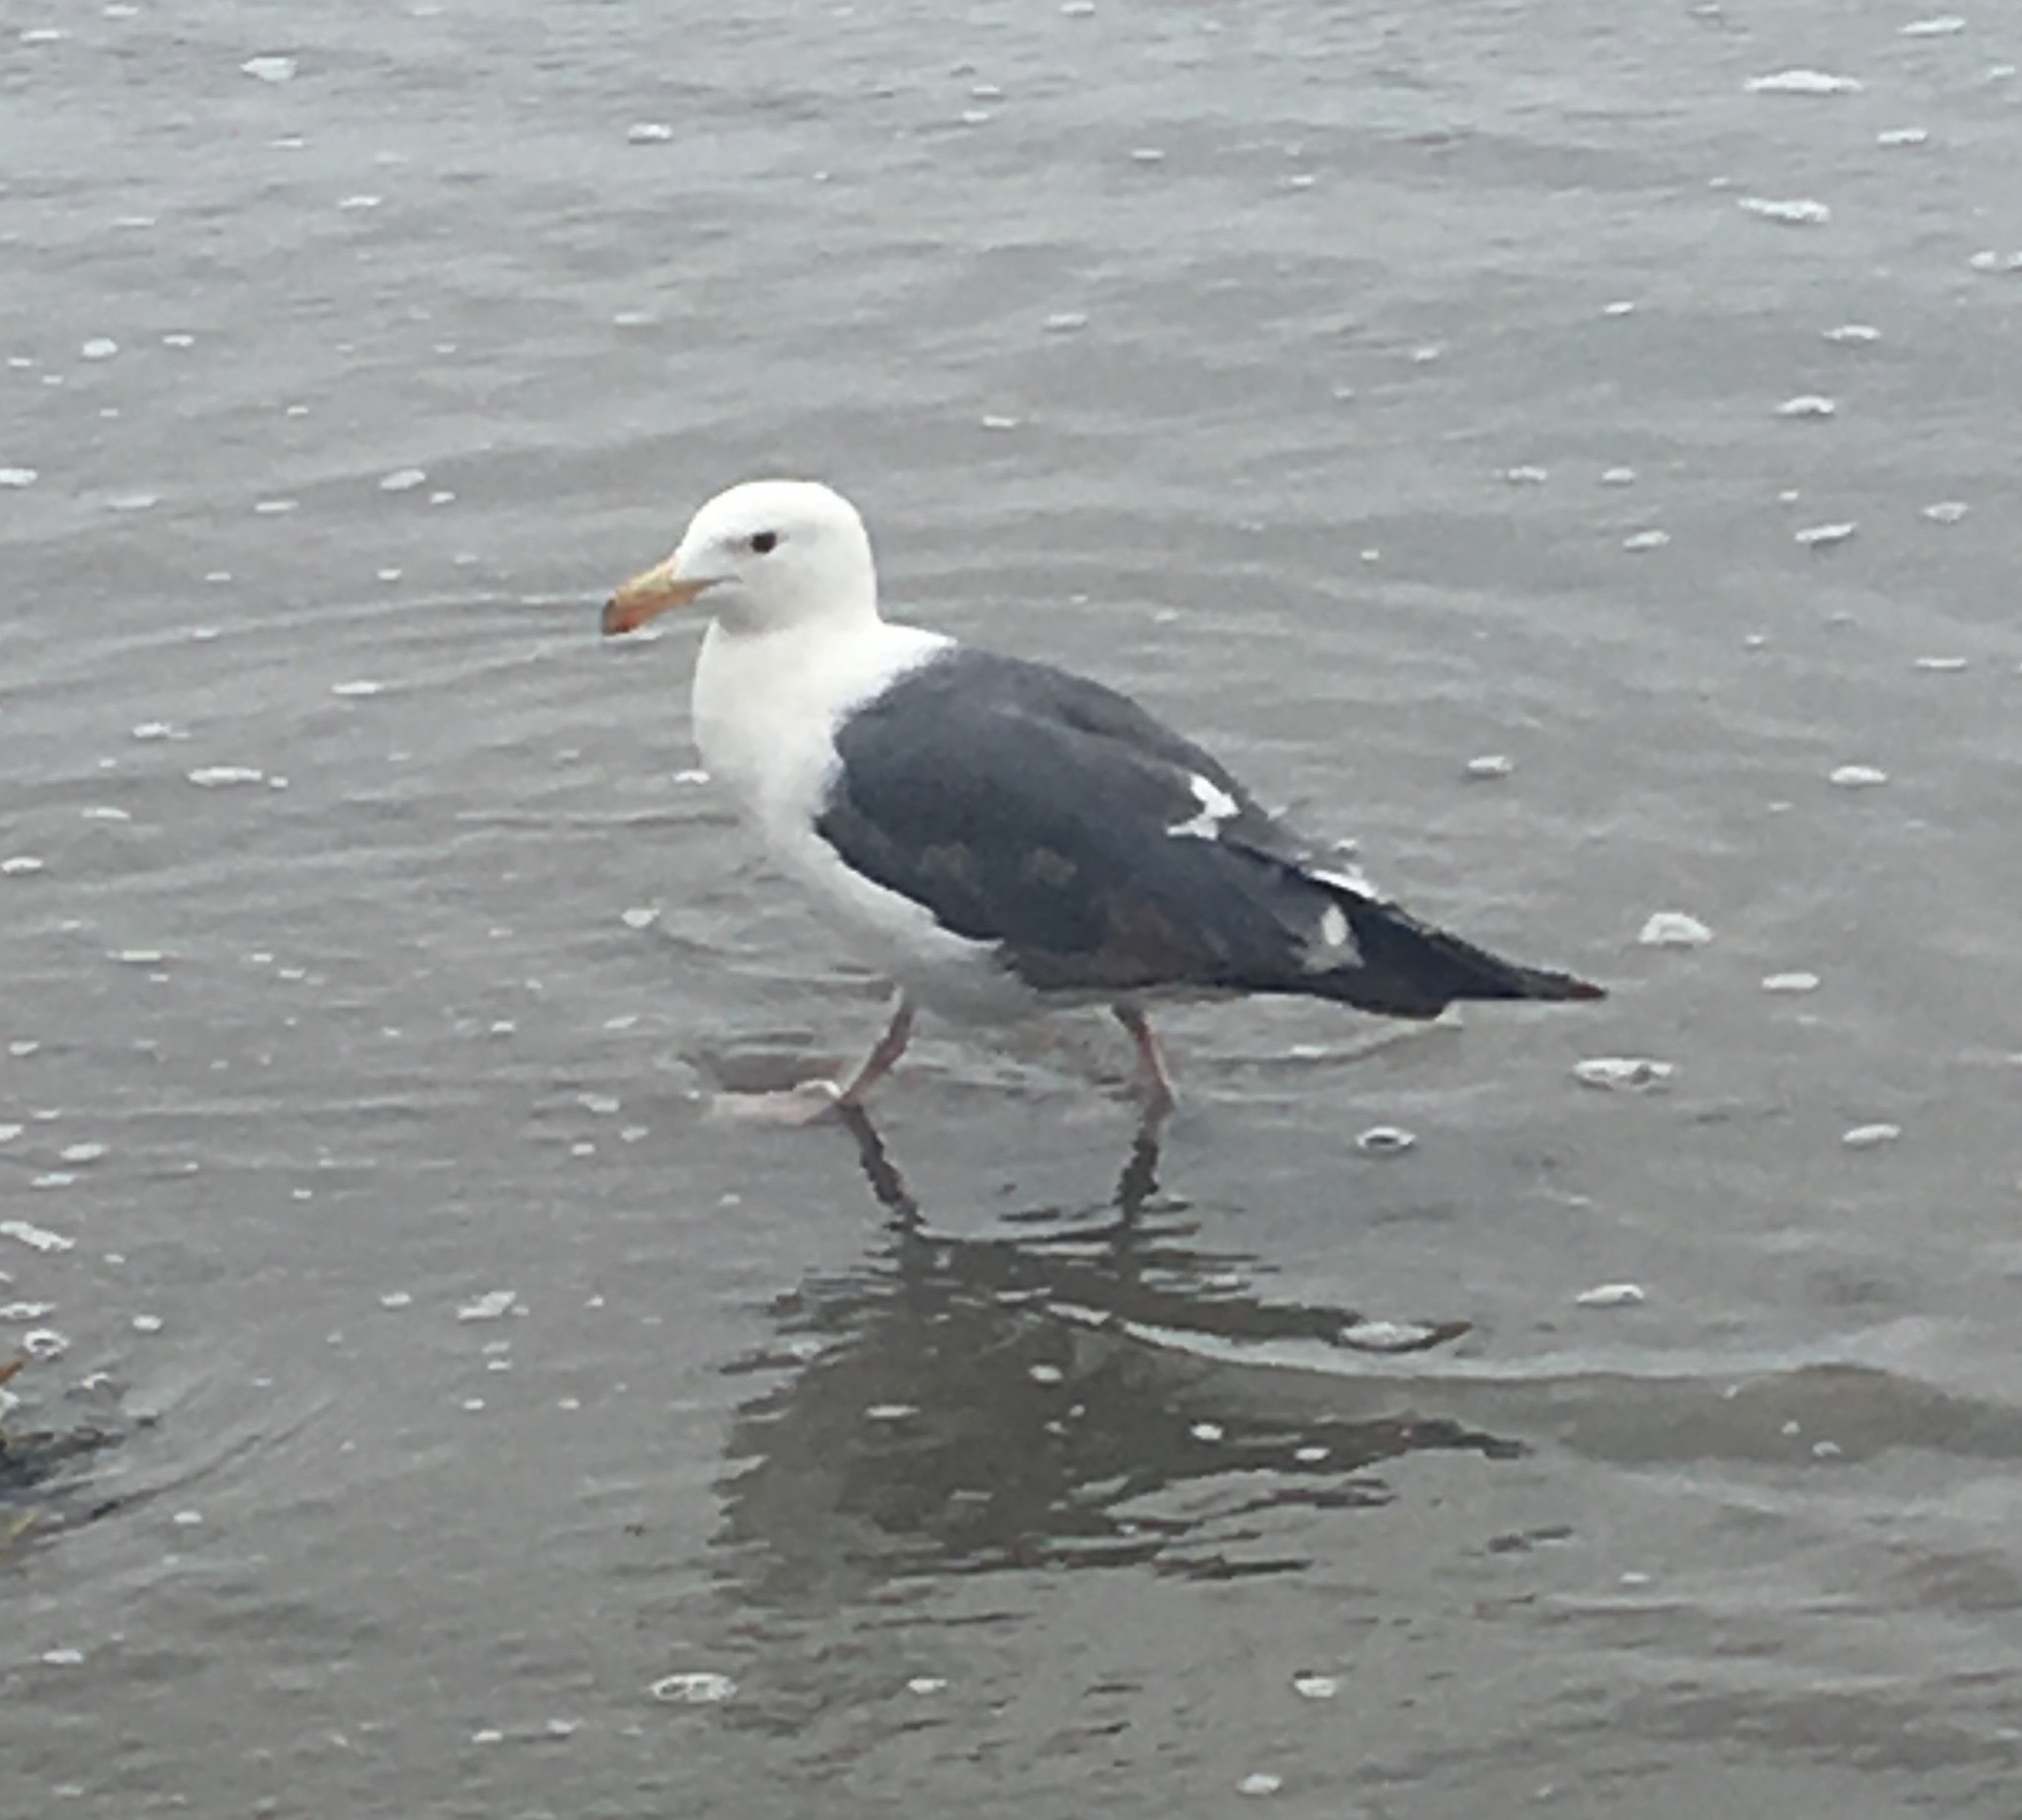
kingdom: Animalia
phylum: Chordata
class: Aves
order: Charadriiformes
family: Laridae
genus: Larus
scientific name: Larus occidentalis
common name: Western gull
